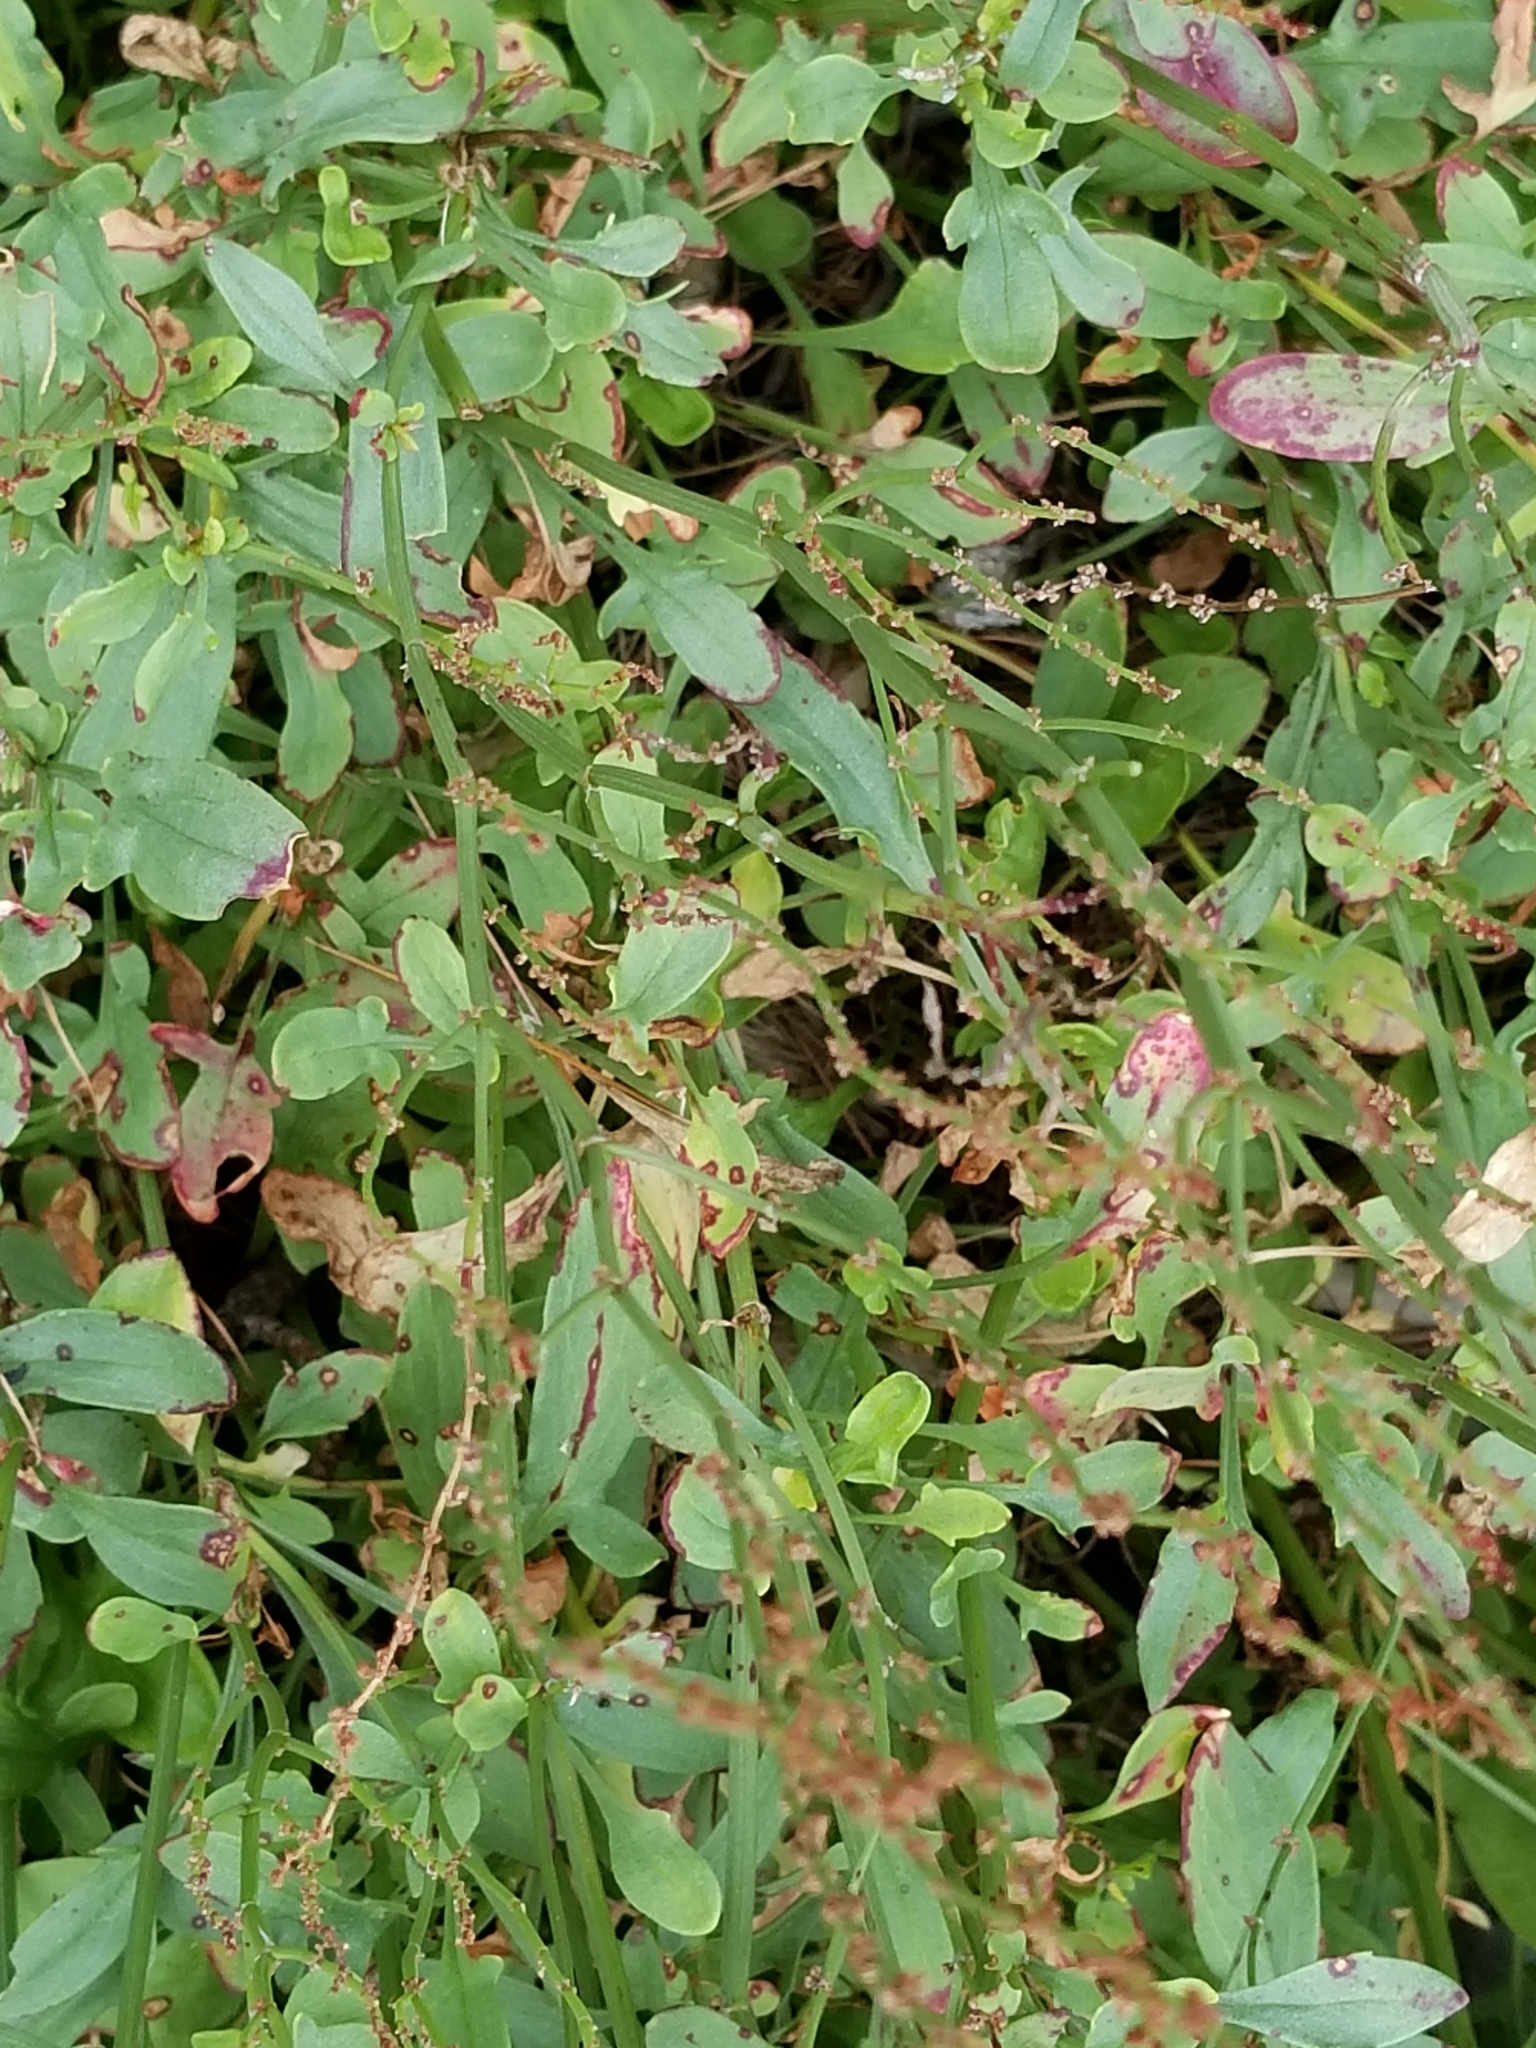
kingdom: Plantae
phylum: Tracheophyta
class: Magnoliopsida
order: Caryophyllales
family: Polygonaceae
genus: Rumex
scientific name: Rumex acetosella
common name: Common sheep sorrel
